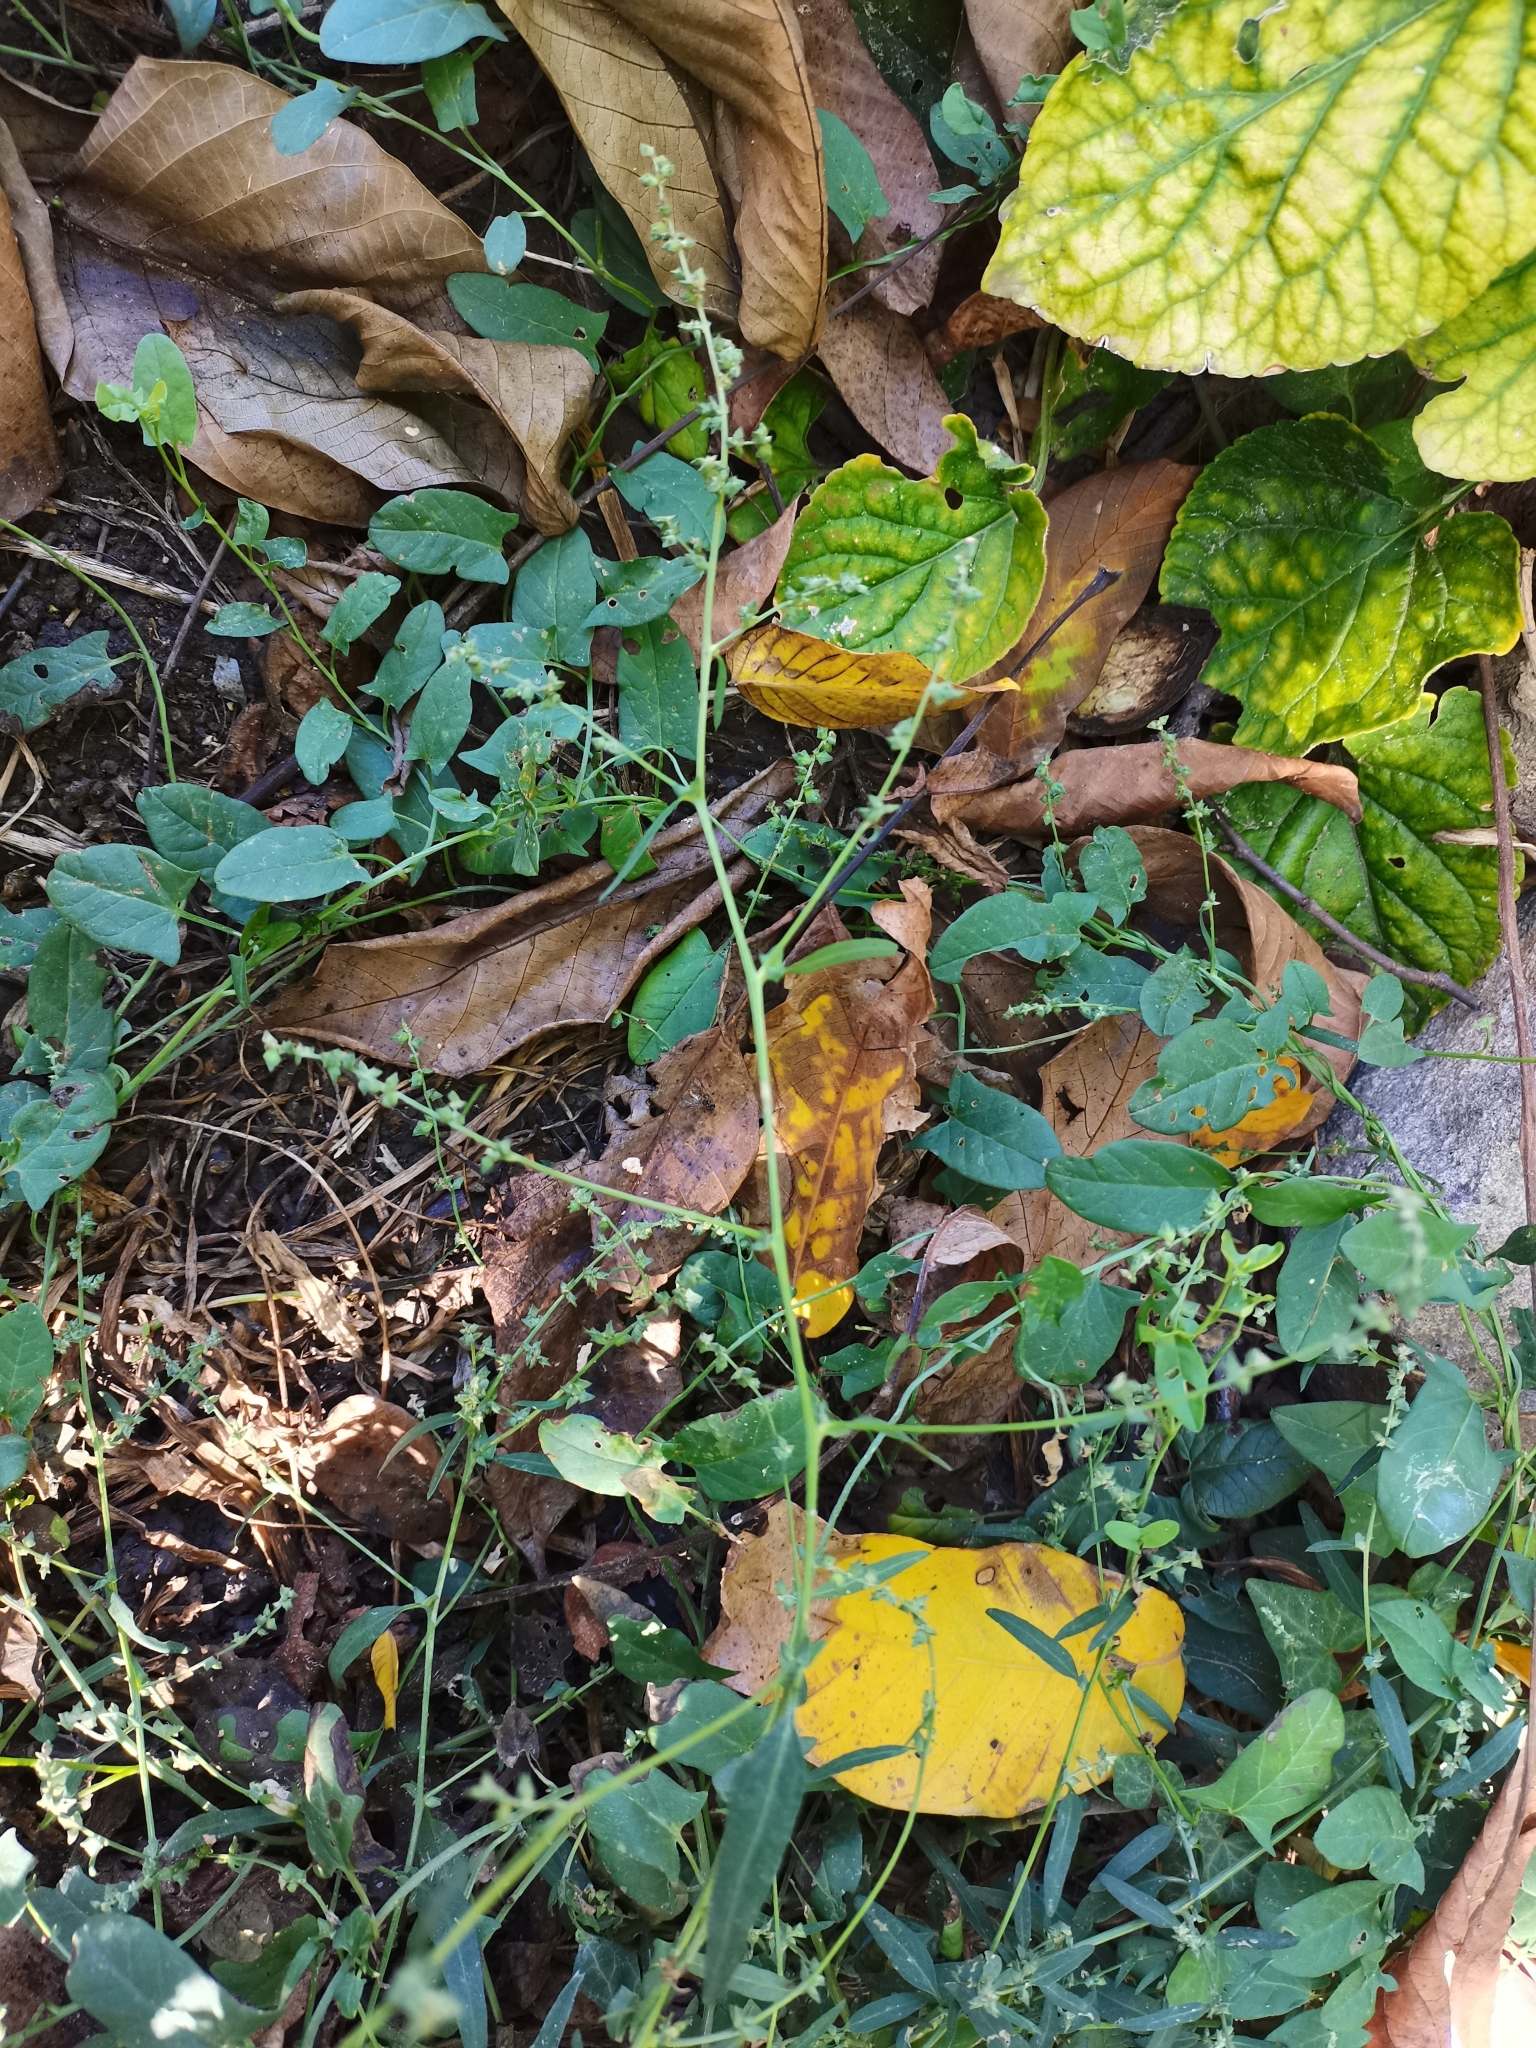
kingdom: Plantae
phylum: Tracheophyta
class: Magnoliopsida
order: Caryophyllales
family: Amaranthaceae
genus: Atriplex
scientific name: Atriplex patula
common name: Common orache
